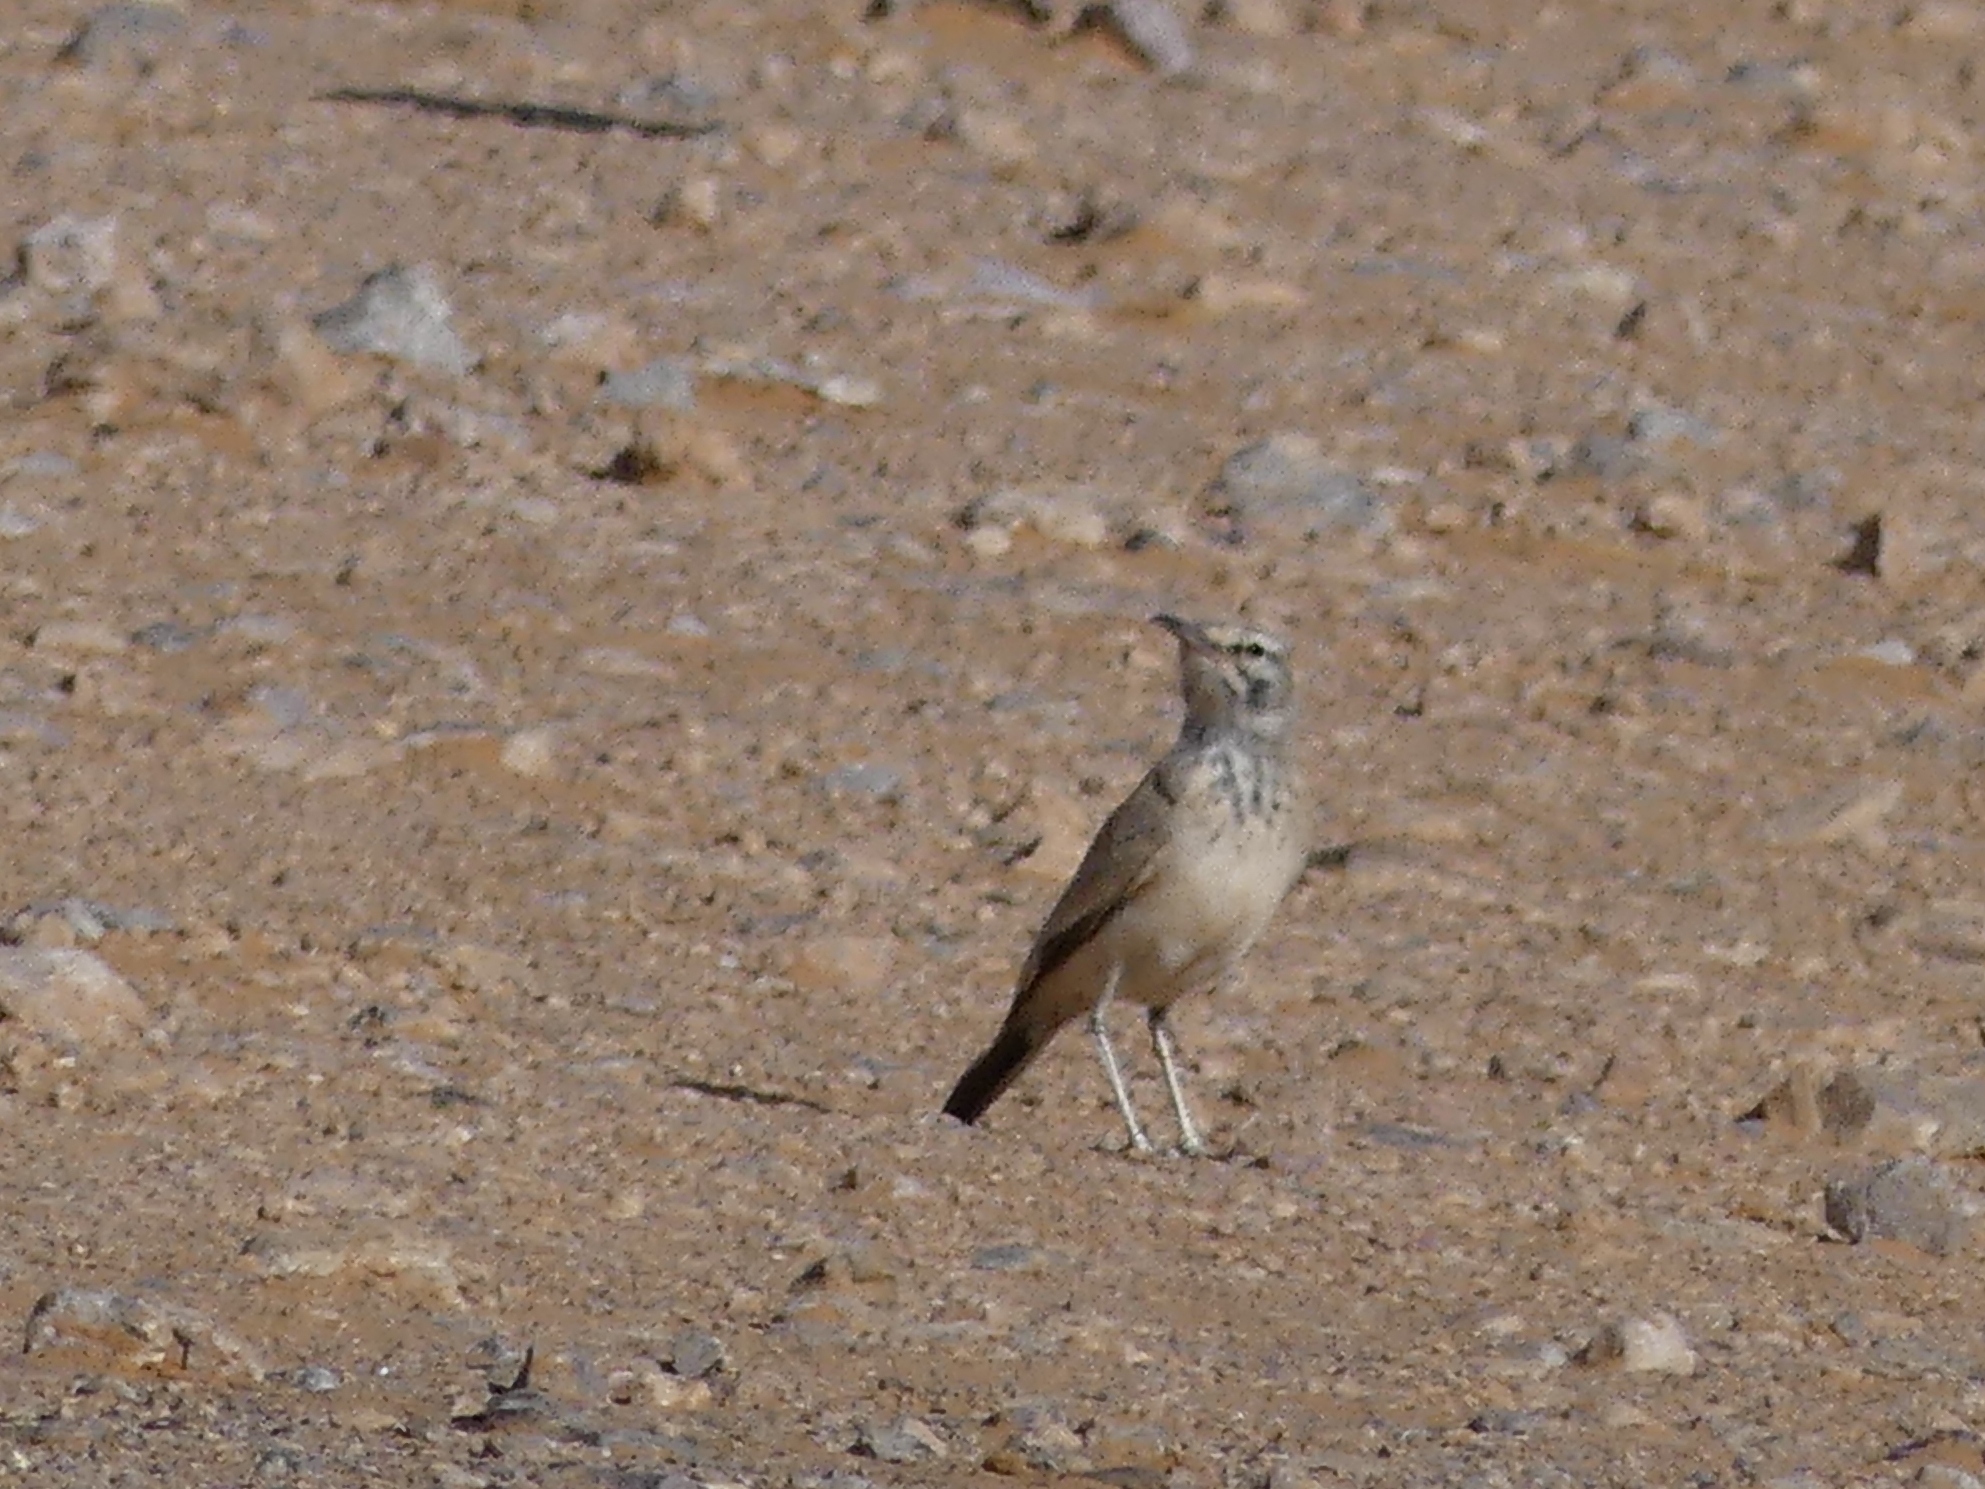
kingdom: Animalia
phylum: Chordata
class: Aves
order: Passeriformes
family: Alaudidae
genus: Alaemon
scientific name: Alaemon alaudipes
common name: Greater hoopoe-lark
